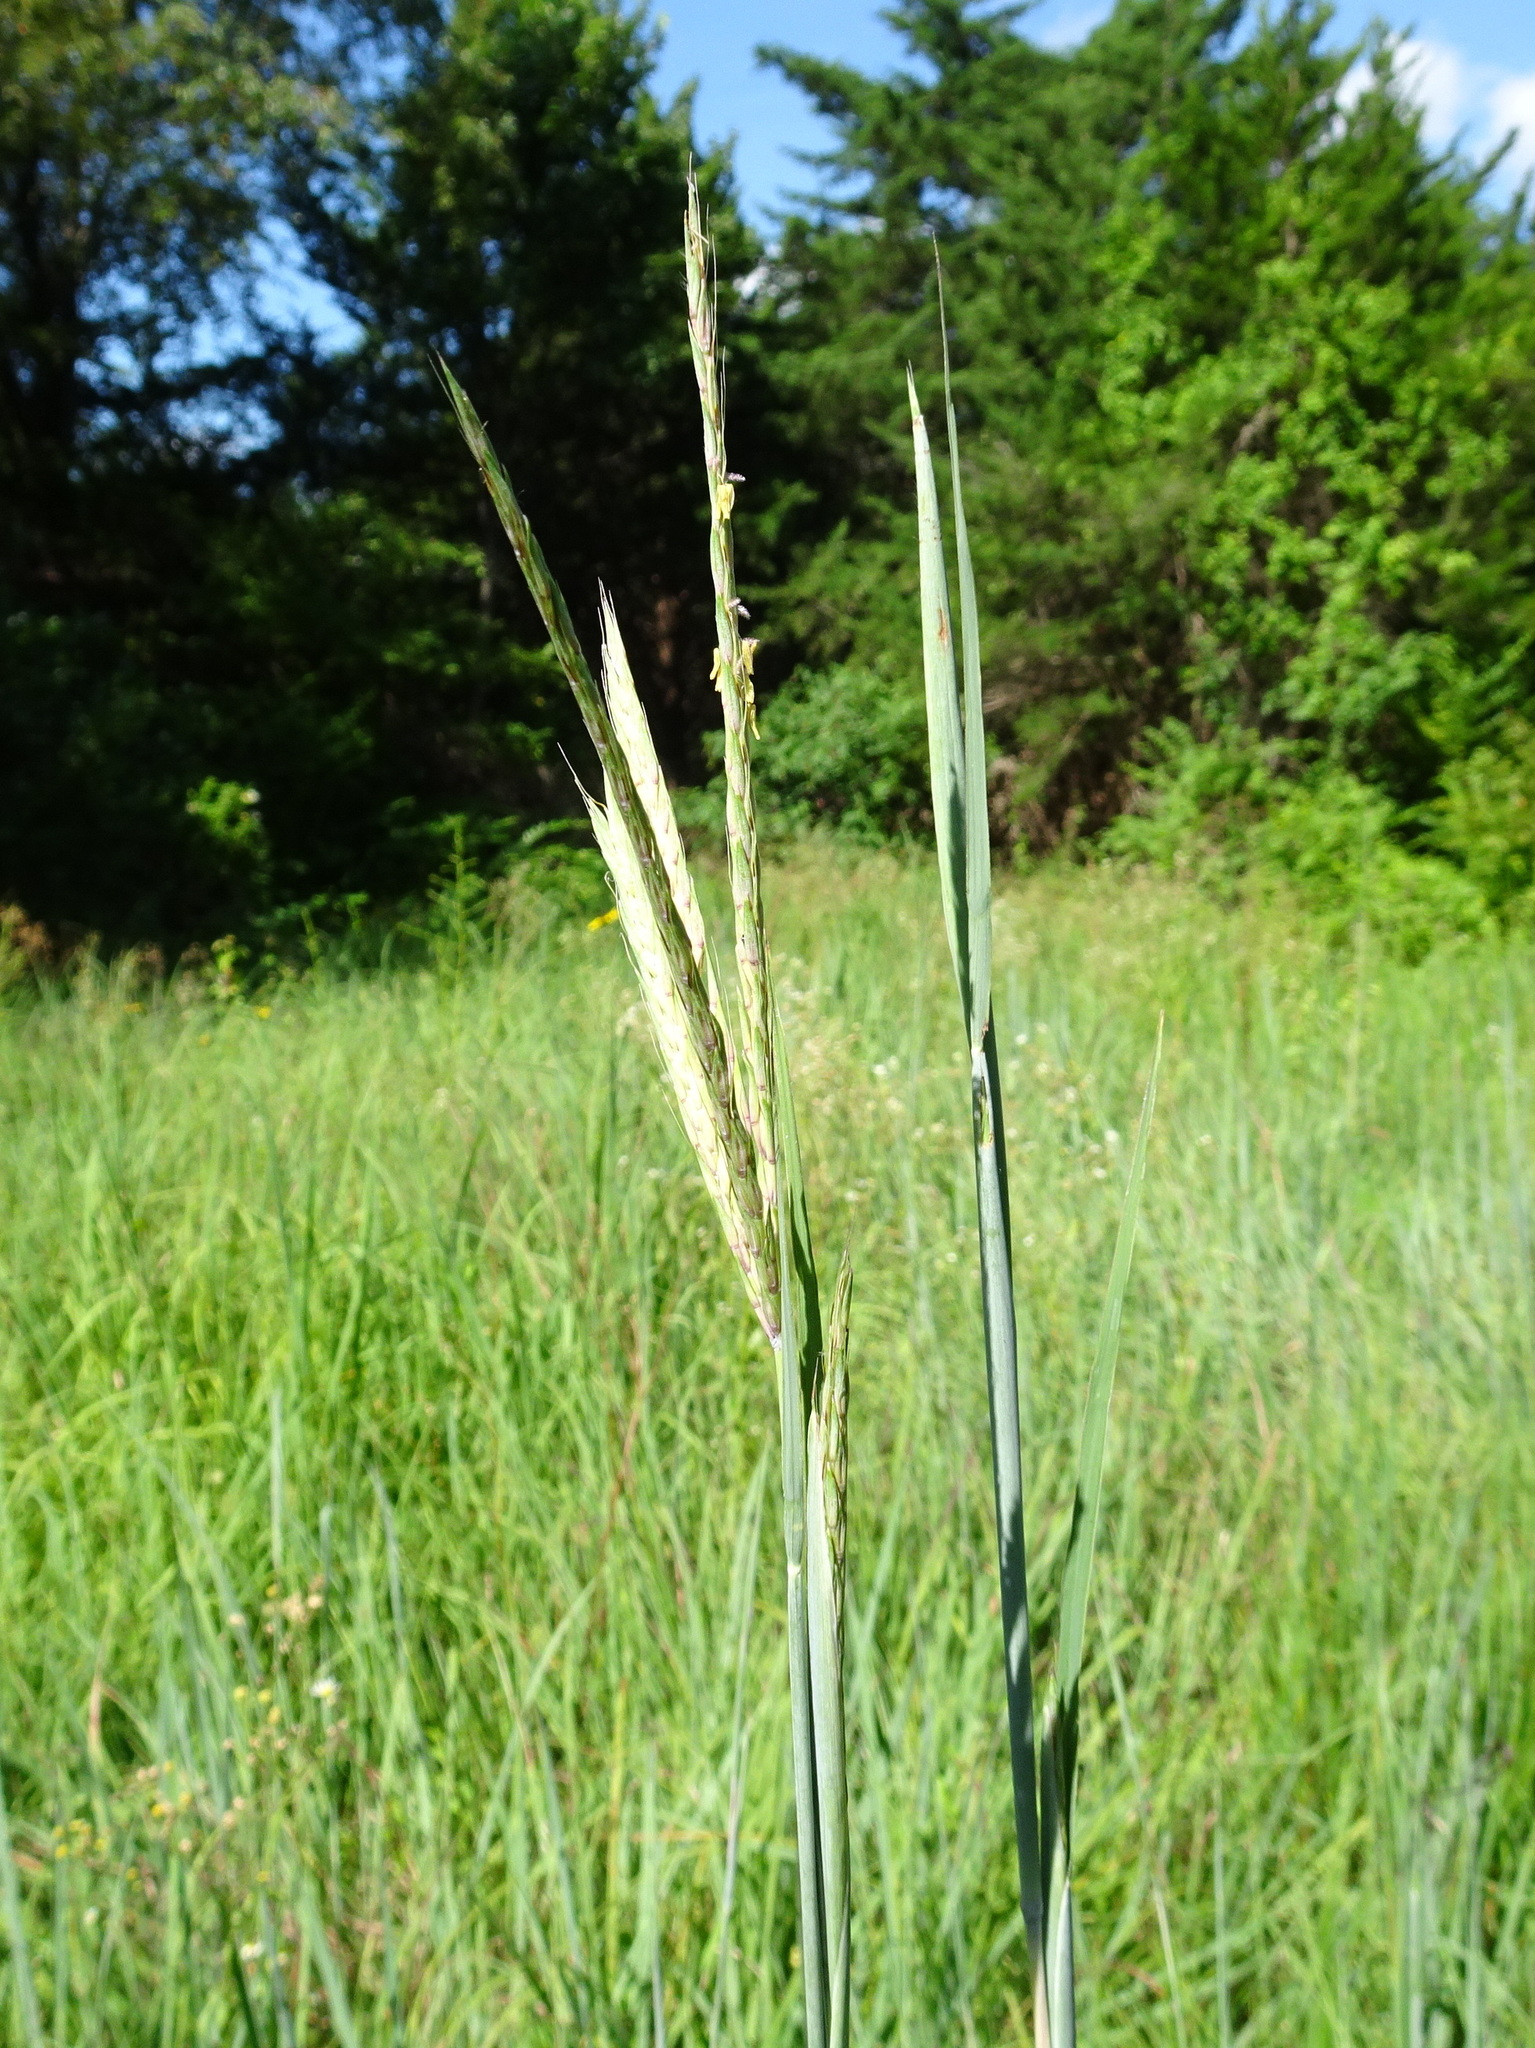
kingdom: Plantae
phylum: Tracheophyta
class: Liliopsida
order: Poales
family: Poaceae
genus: Andropogon
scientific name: Andropogon gerardi
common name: Big bluestem
